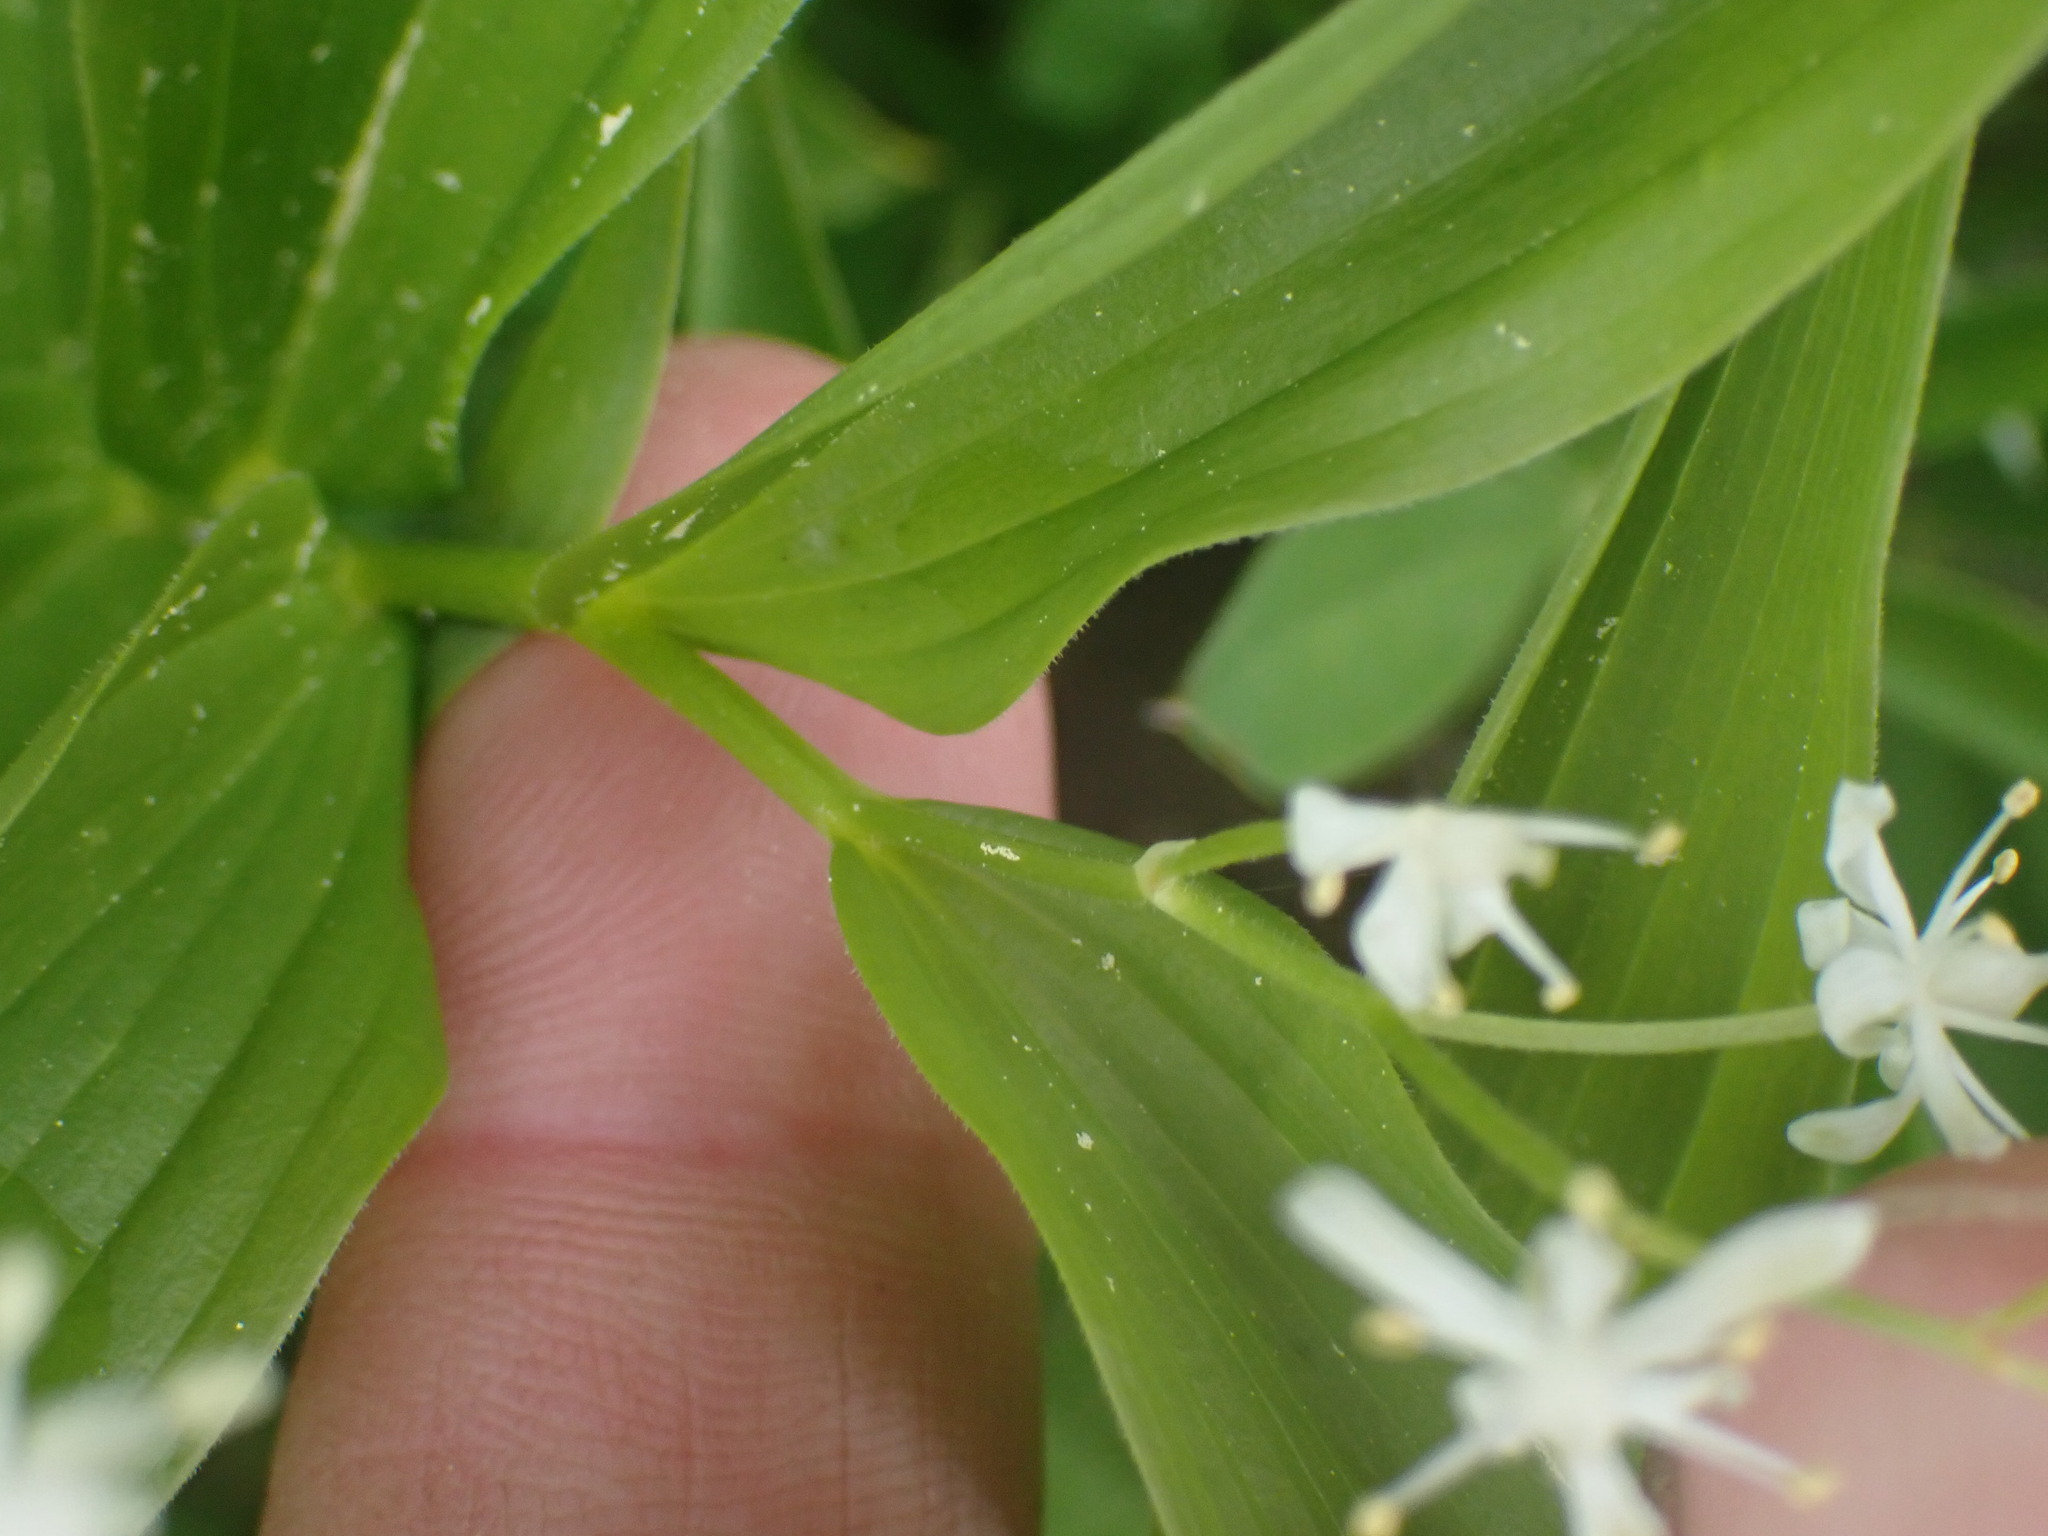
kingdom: Plantae
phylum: Tracheophyta
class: Liliopsida
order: Asparagales
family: Asparagaceae
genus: Maianthemum
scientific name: Maianthemum stellatum
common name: Little false solomon's seal
